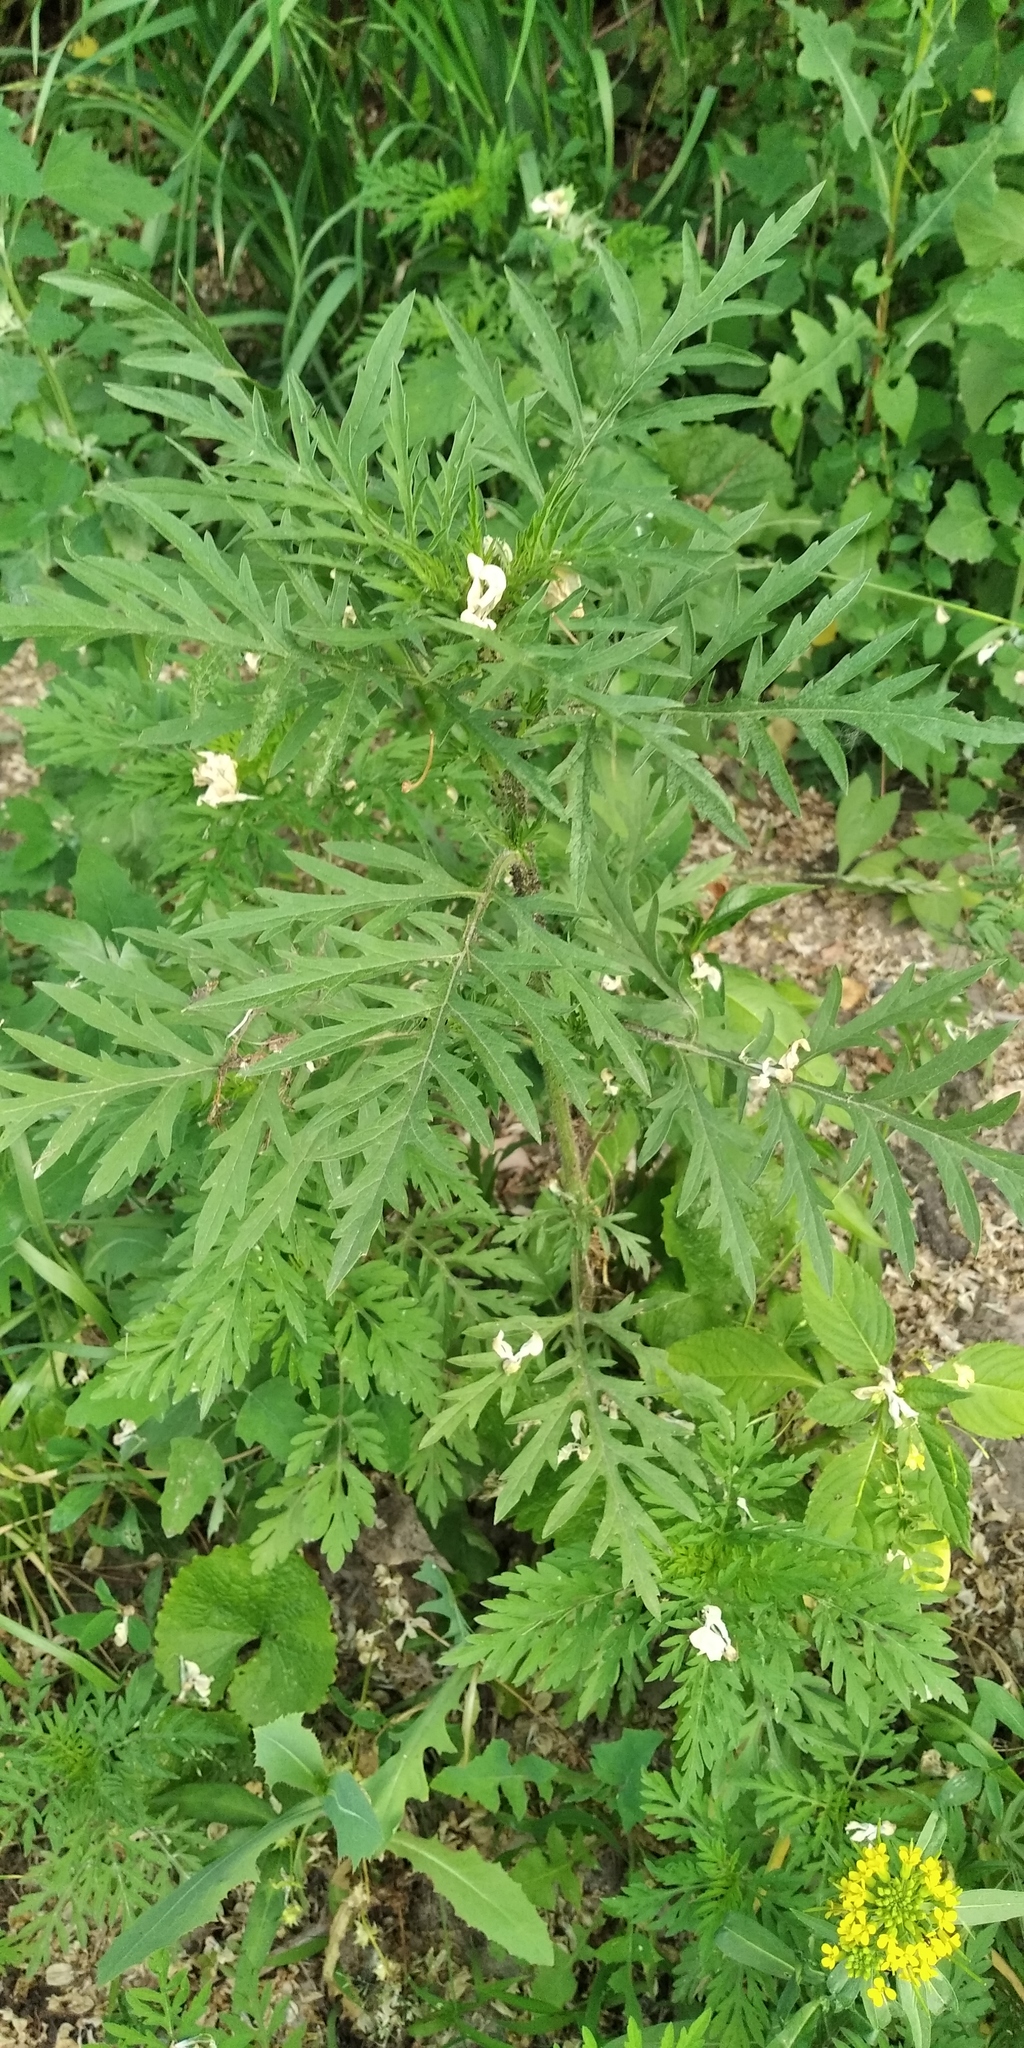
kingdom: Plantae
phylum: Tracheophyta
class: Magnoliopsida
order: Asterales
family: Asteraceae
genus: Ambrosia
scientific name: Ambrosia artemisiifolia
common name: Annual ragweed
